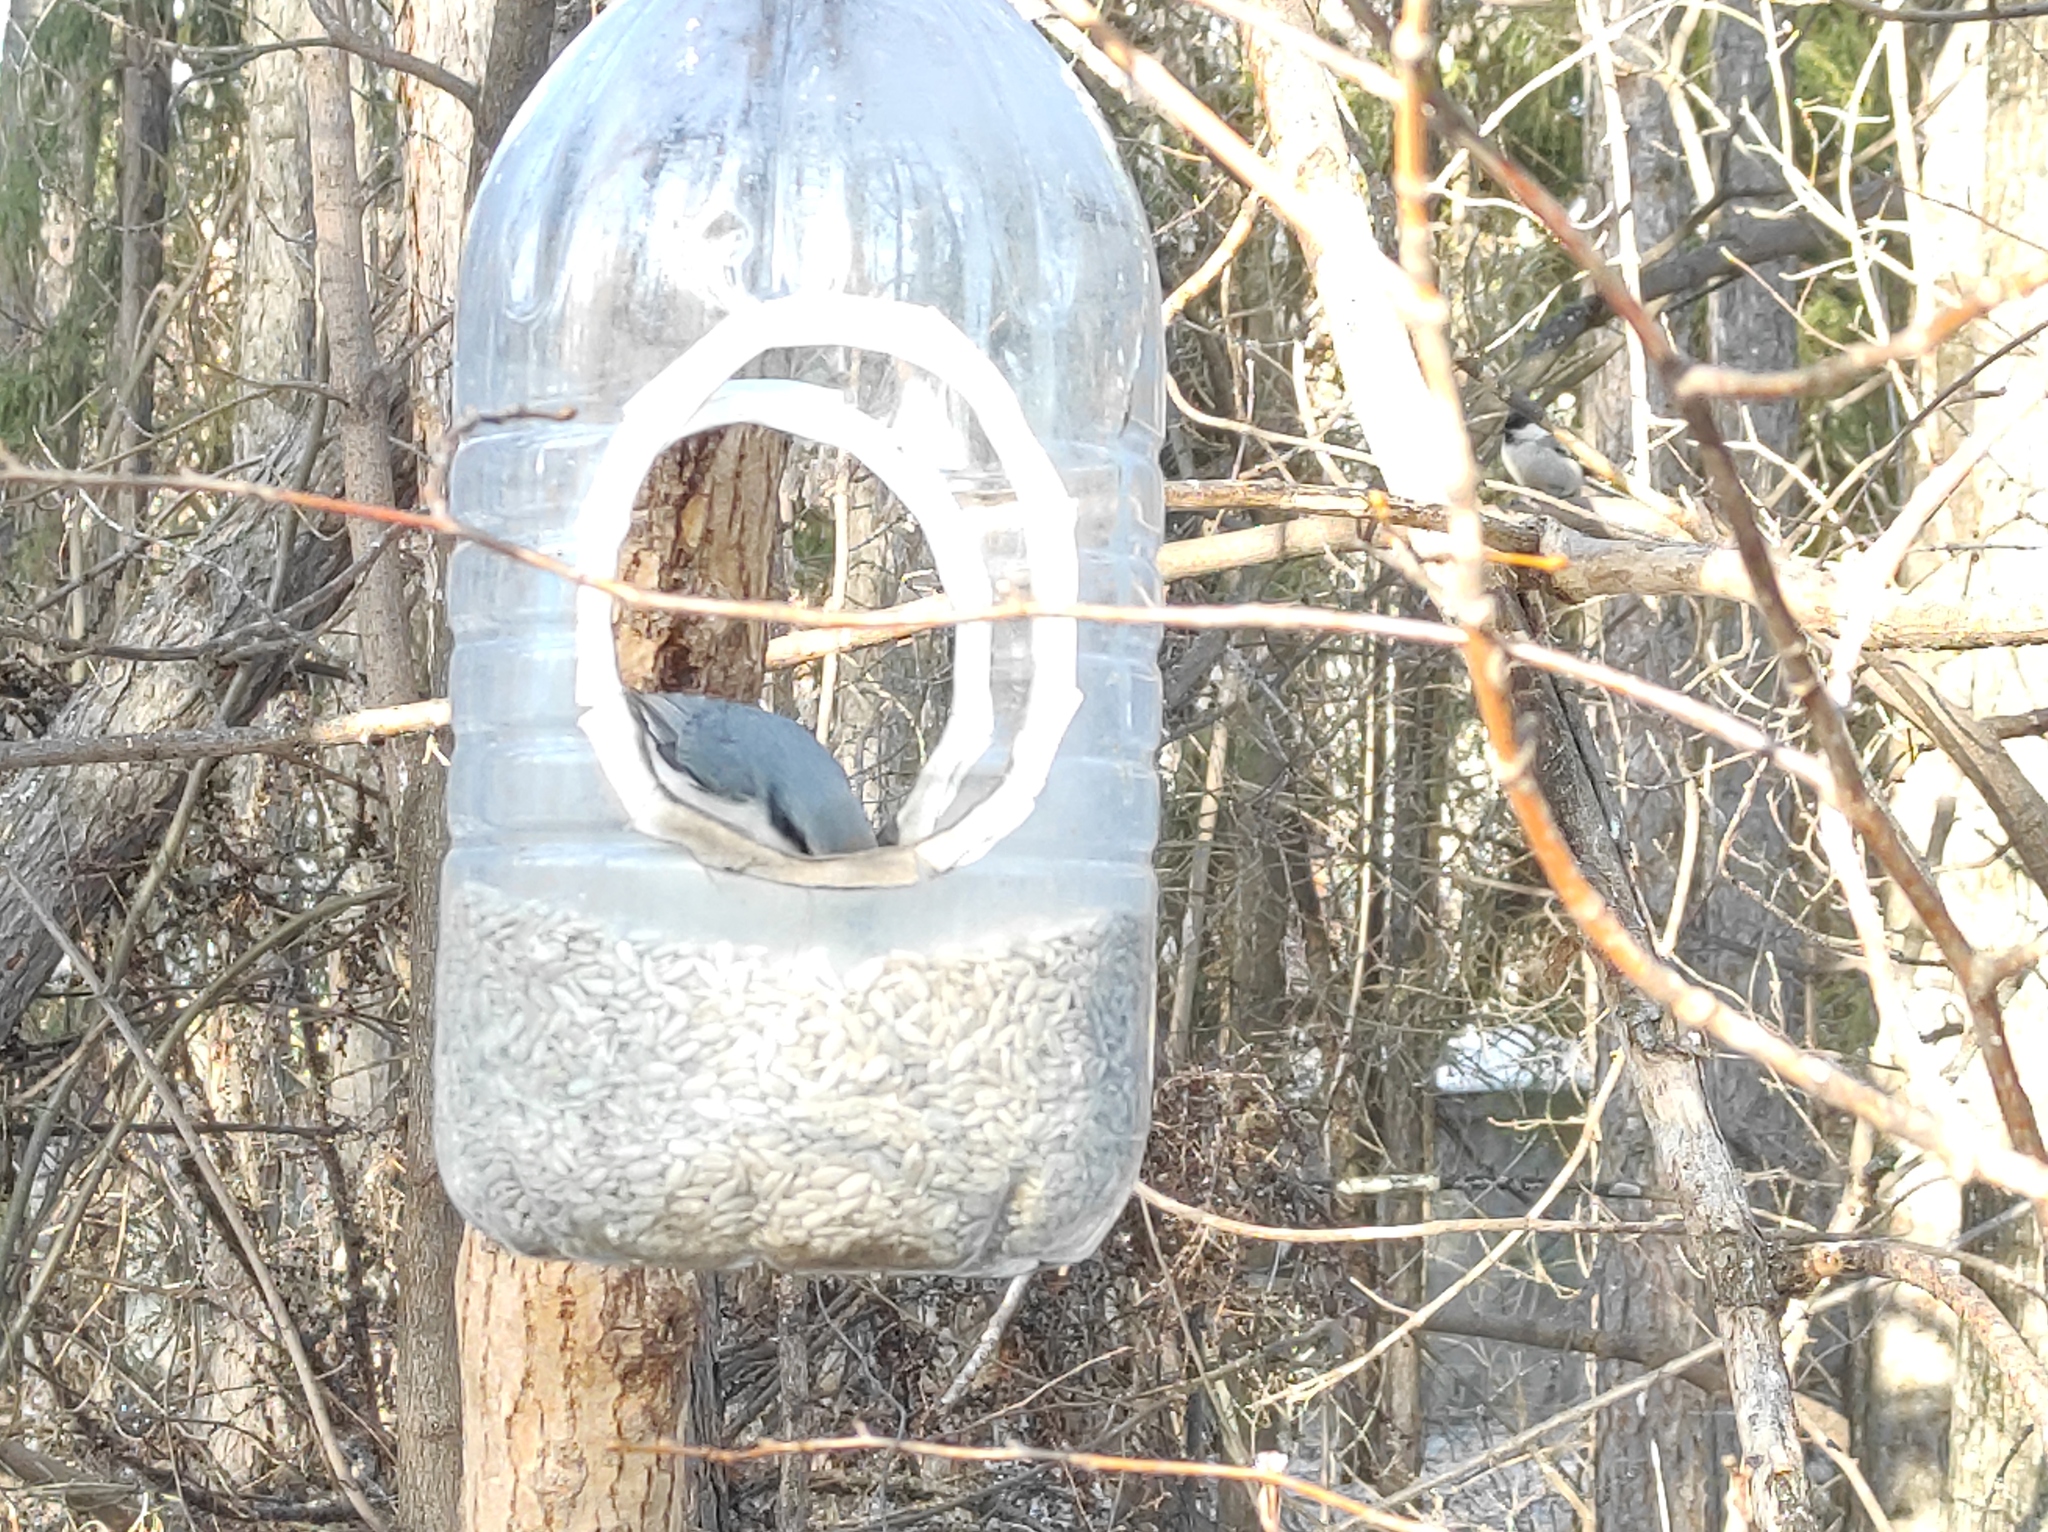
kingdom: Animalia
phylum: Chordata
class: Aves
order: Passeriformes
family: Sittidae
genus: Sitta
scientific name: Sitta europaea
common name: Eurasian nuthatch
